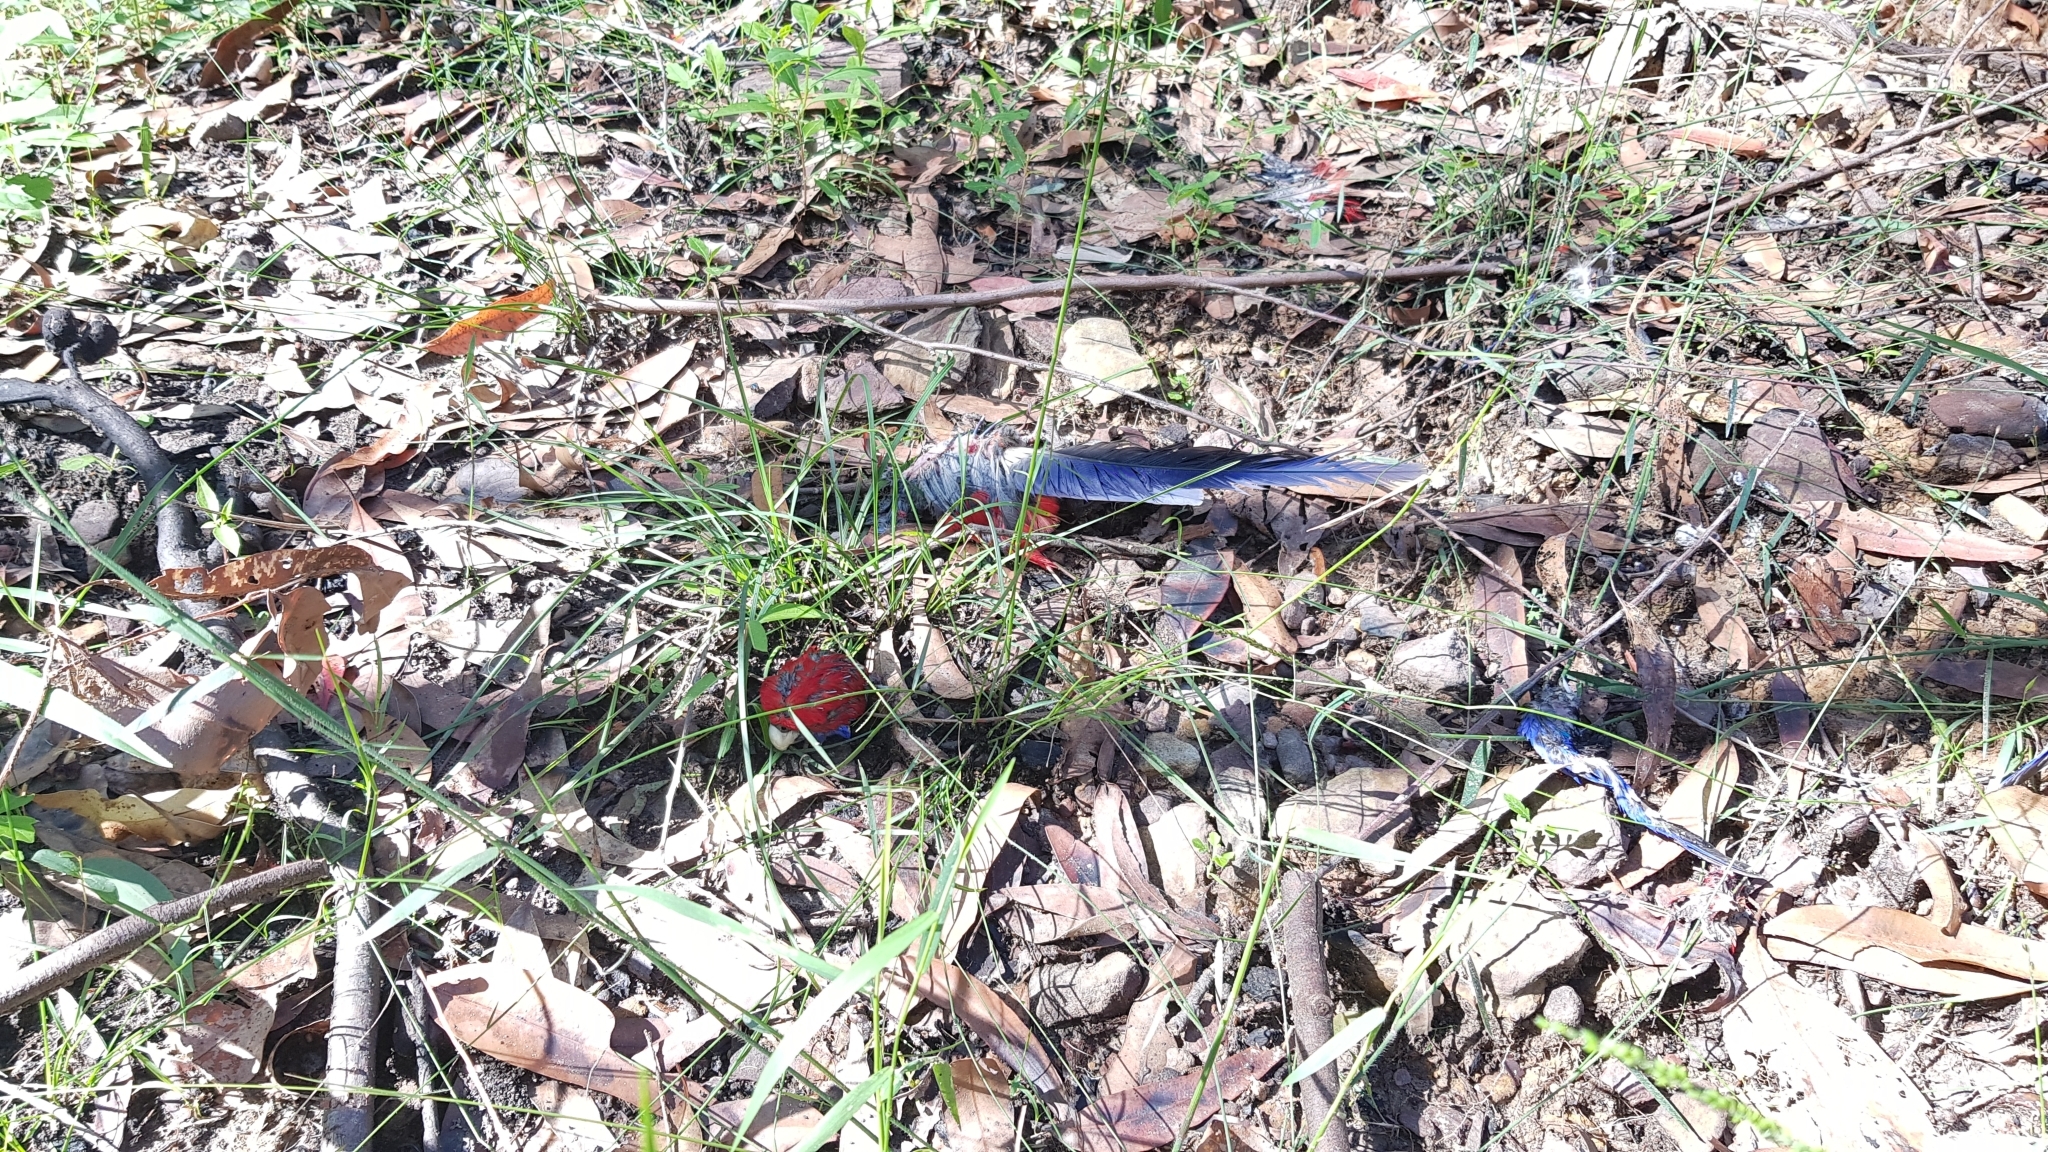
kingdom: Animalia
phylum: Chordata
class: Aves
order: Psittaciformes
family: Psittacidae
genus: Platycercus
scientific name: Platycercus elegans
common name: Crimson rosella
